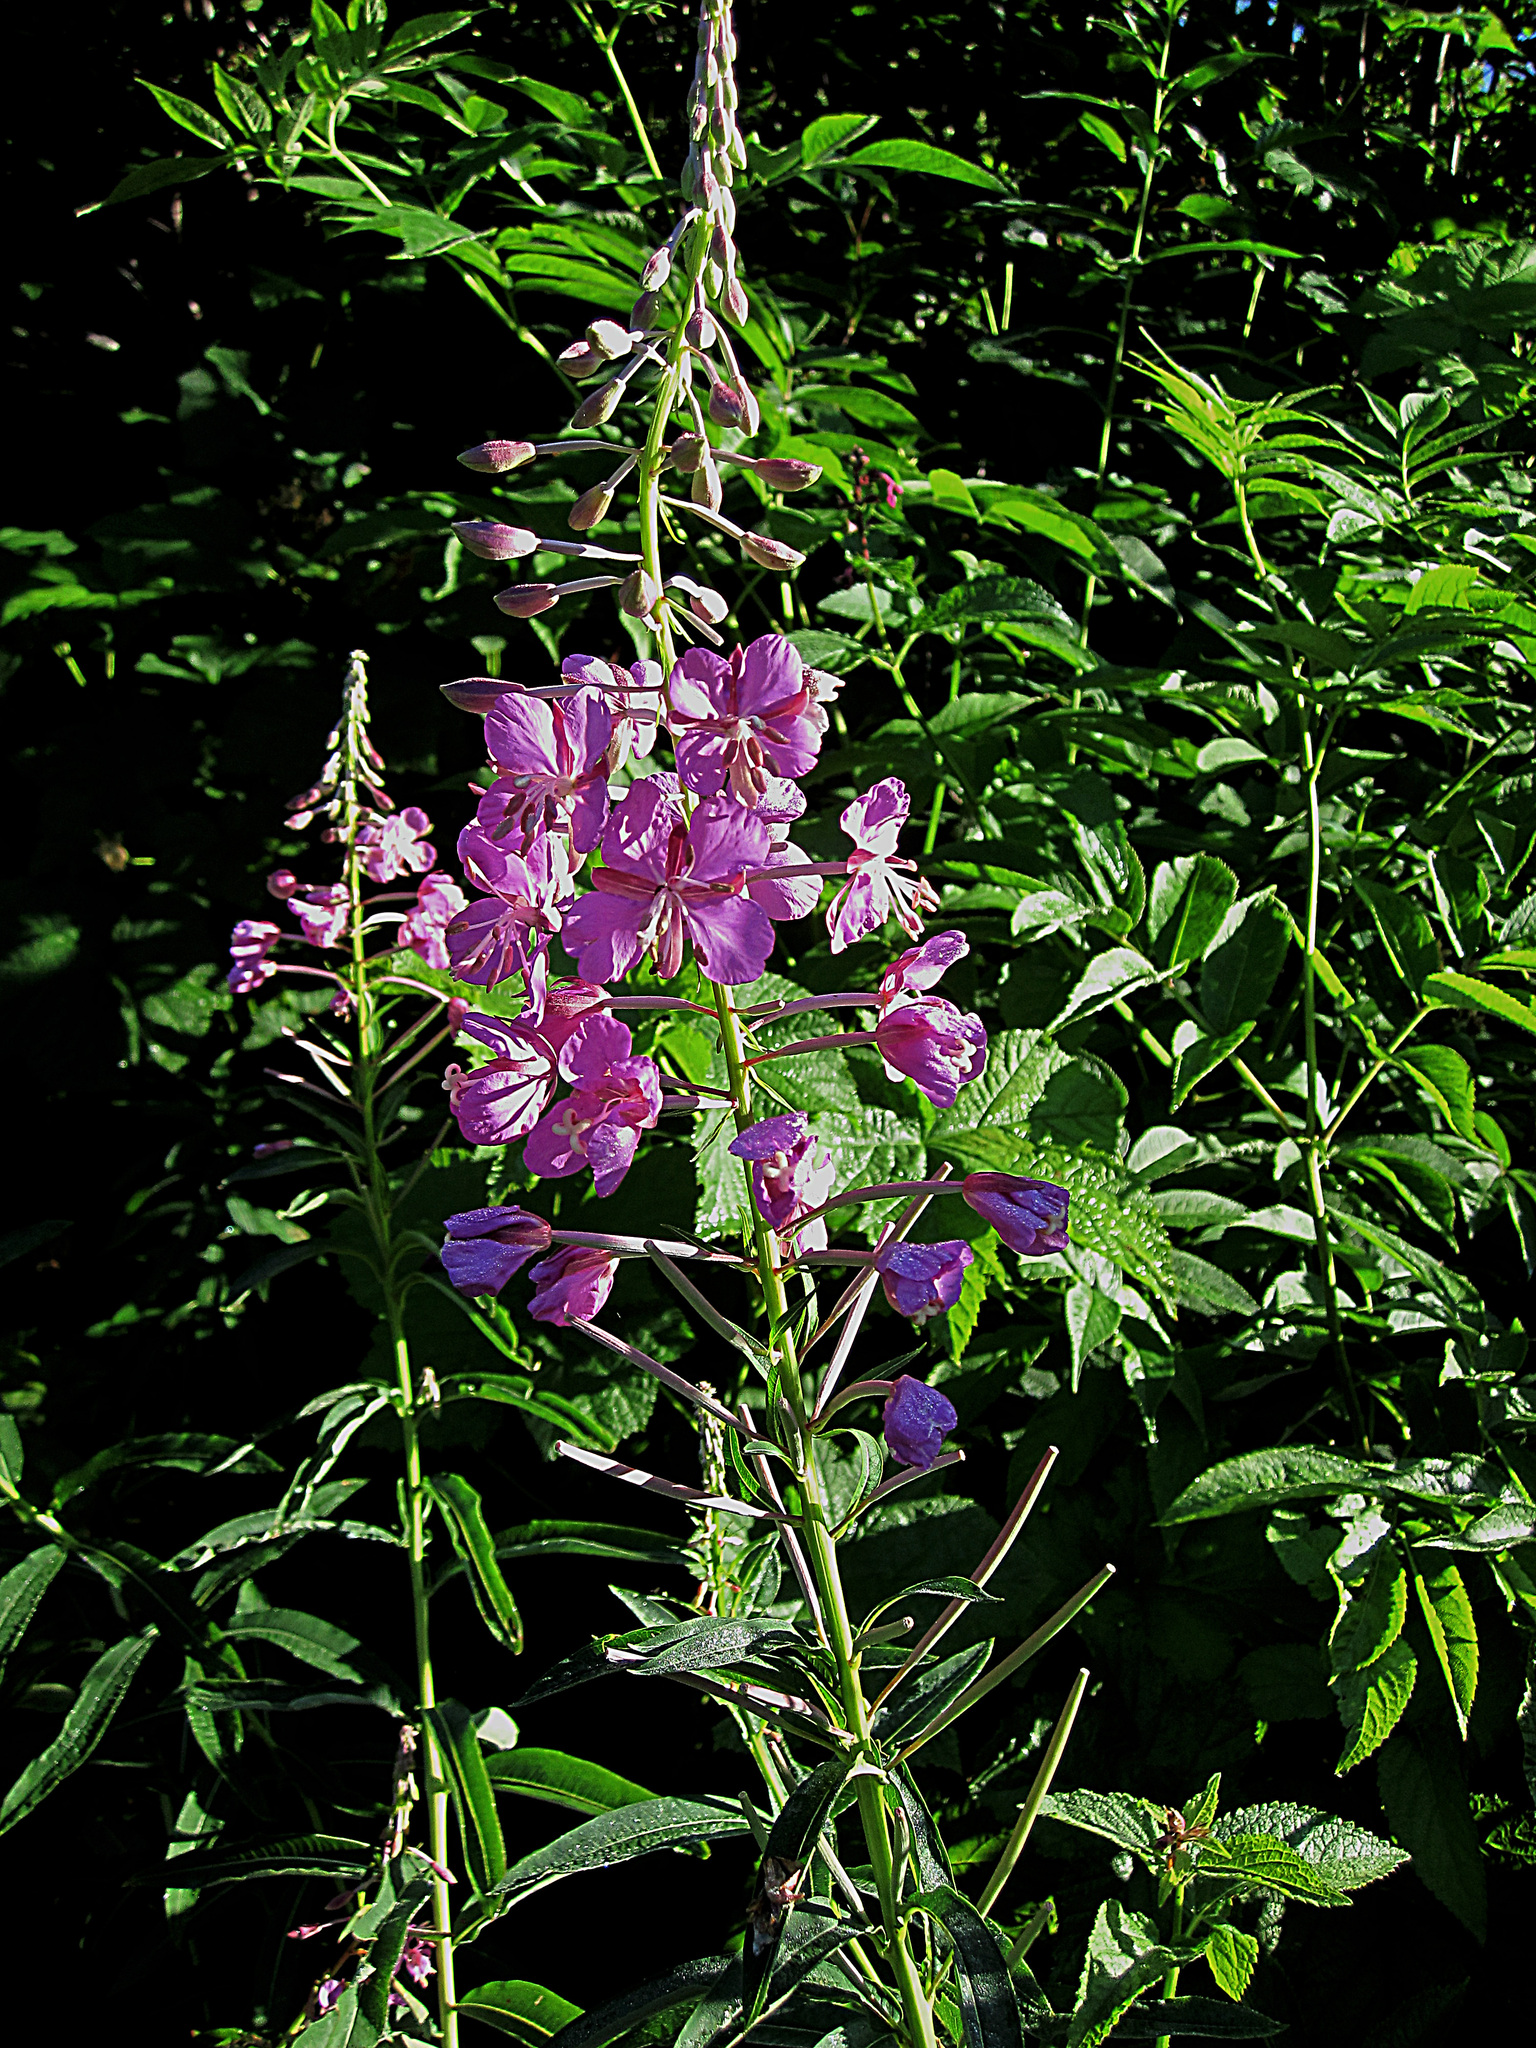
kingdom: Plantae
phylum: Tracheophyta
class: Magnoliopsida
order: Myrtales
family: Onagraceae
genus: Chamaenerion
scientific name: Chamaenerion angustifolium
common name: Fireweed
